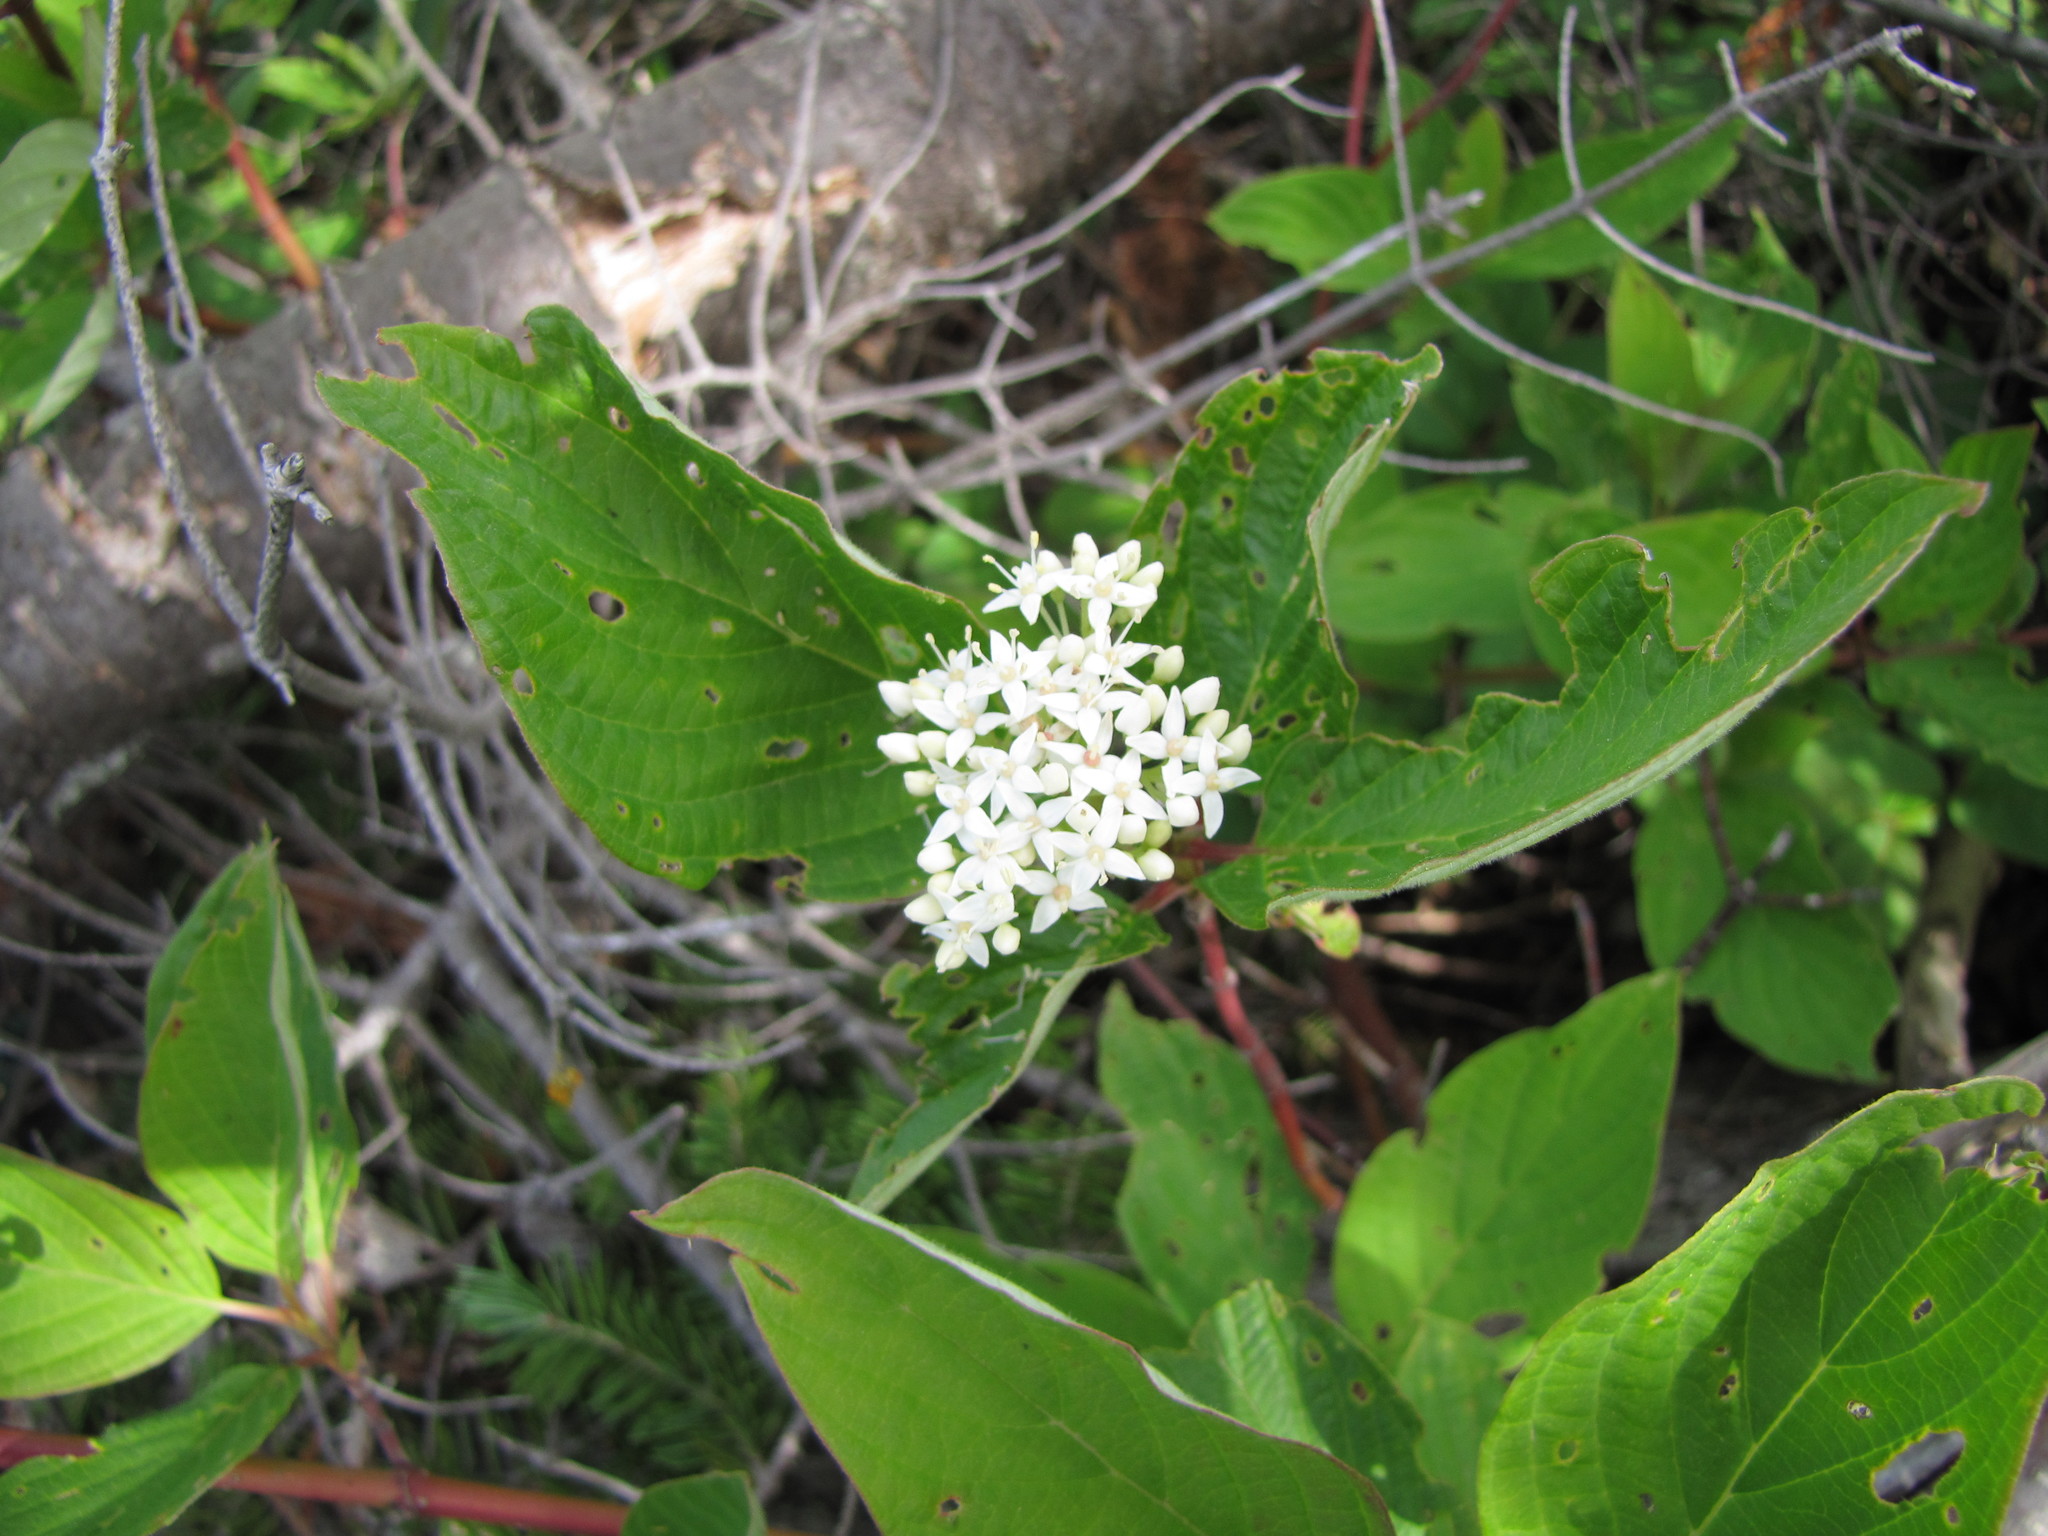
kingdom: Plantae
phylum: Tracheophyta
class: Magnoliopsida
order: Cornales
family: Cornaceae
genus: Cornus
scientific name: Cornus sericea
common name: Red-osier dogwood
